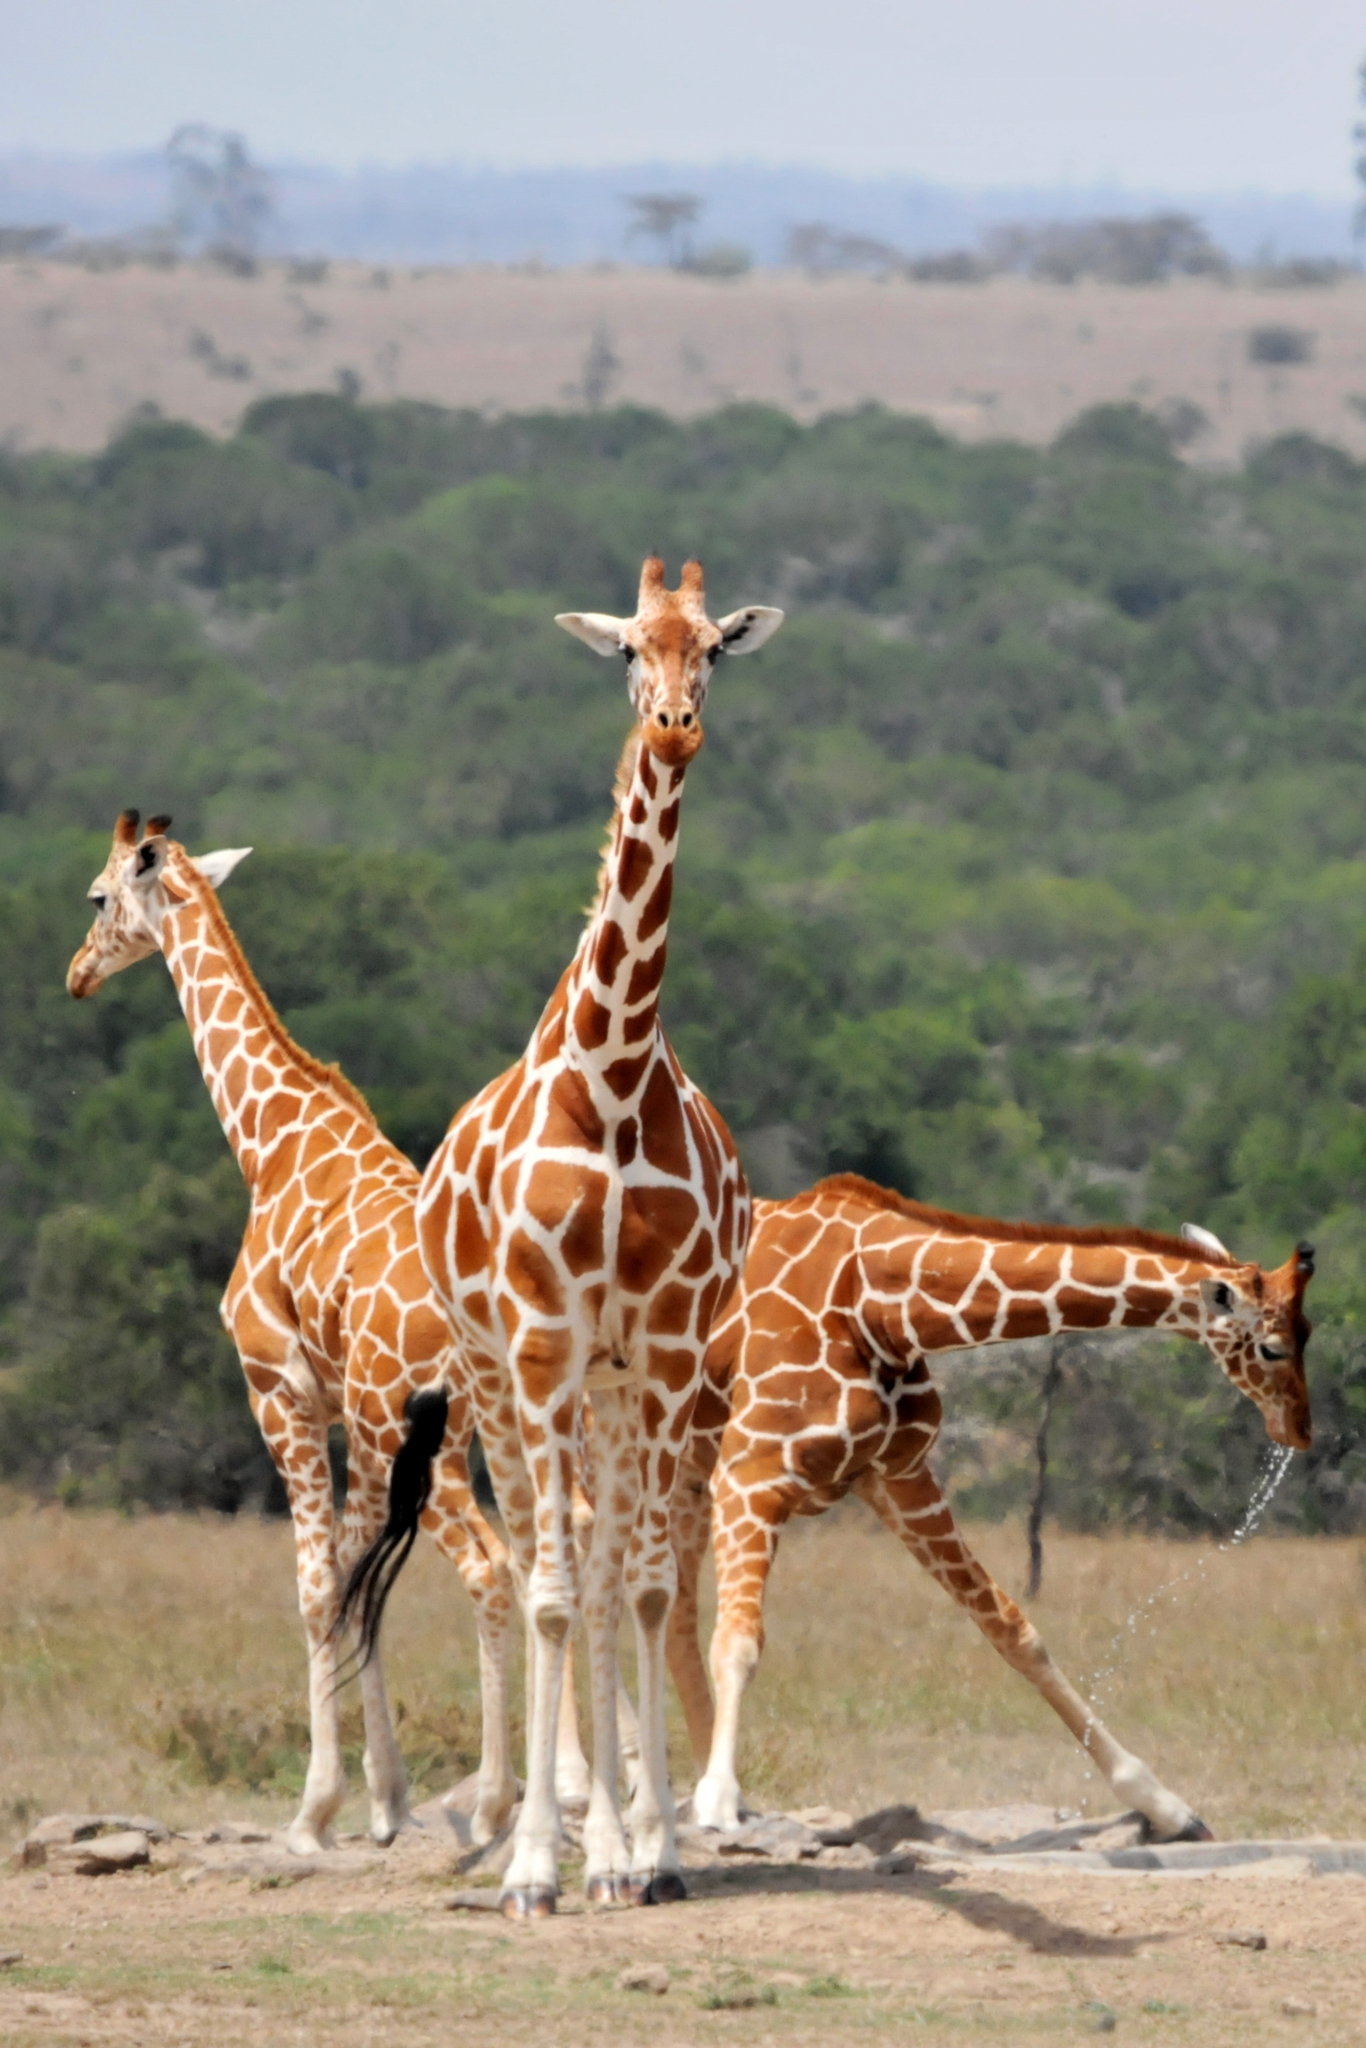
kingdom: Animalia
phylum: Chordata
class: Mammalia
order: Artiodactyla
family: Giraffidae
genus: Giraffa
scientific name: Giraffa reticulata
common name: Reticulated giraffe
